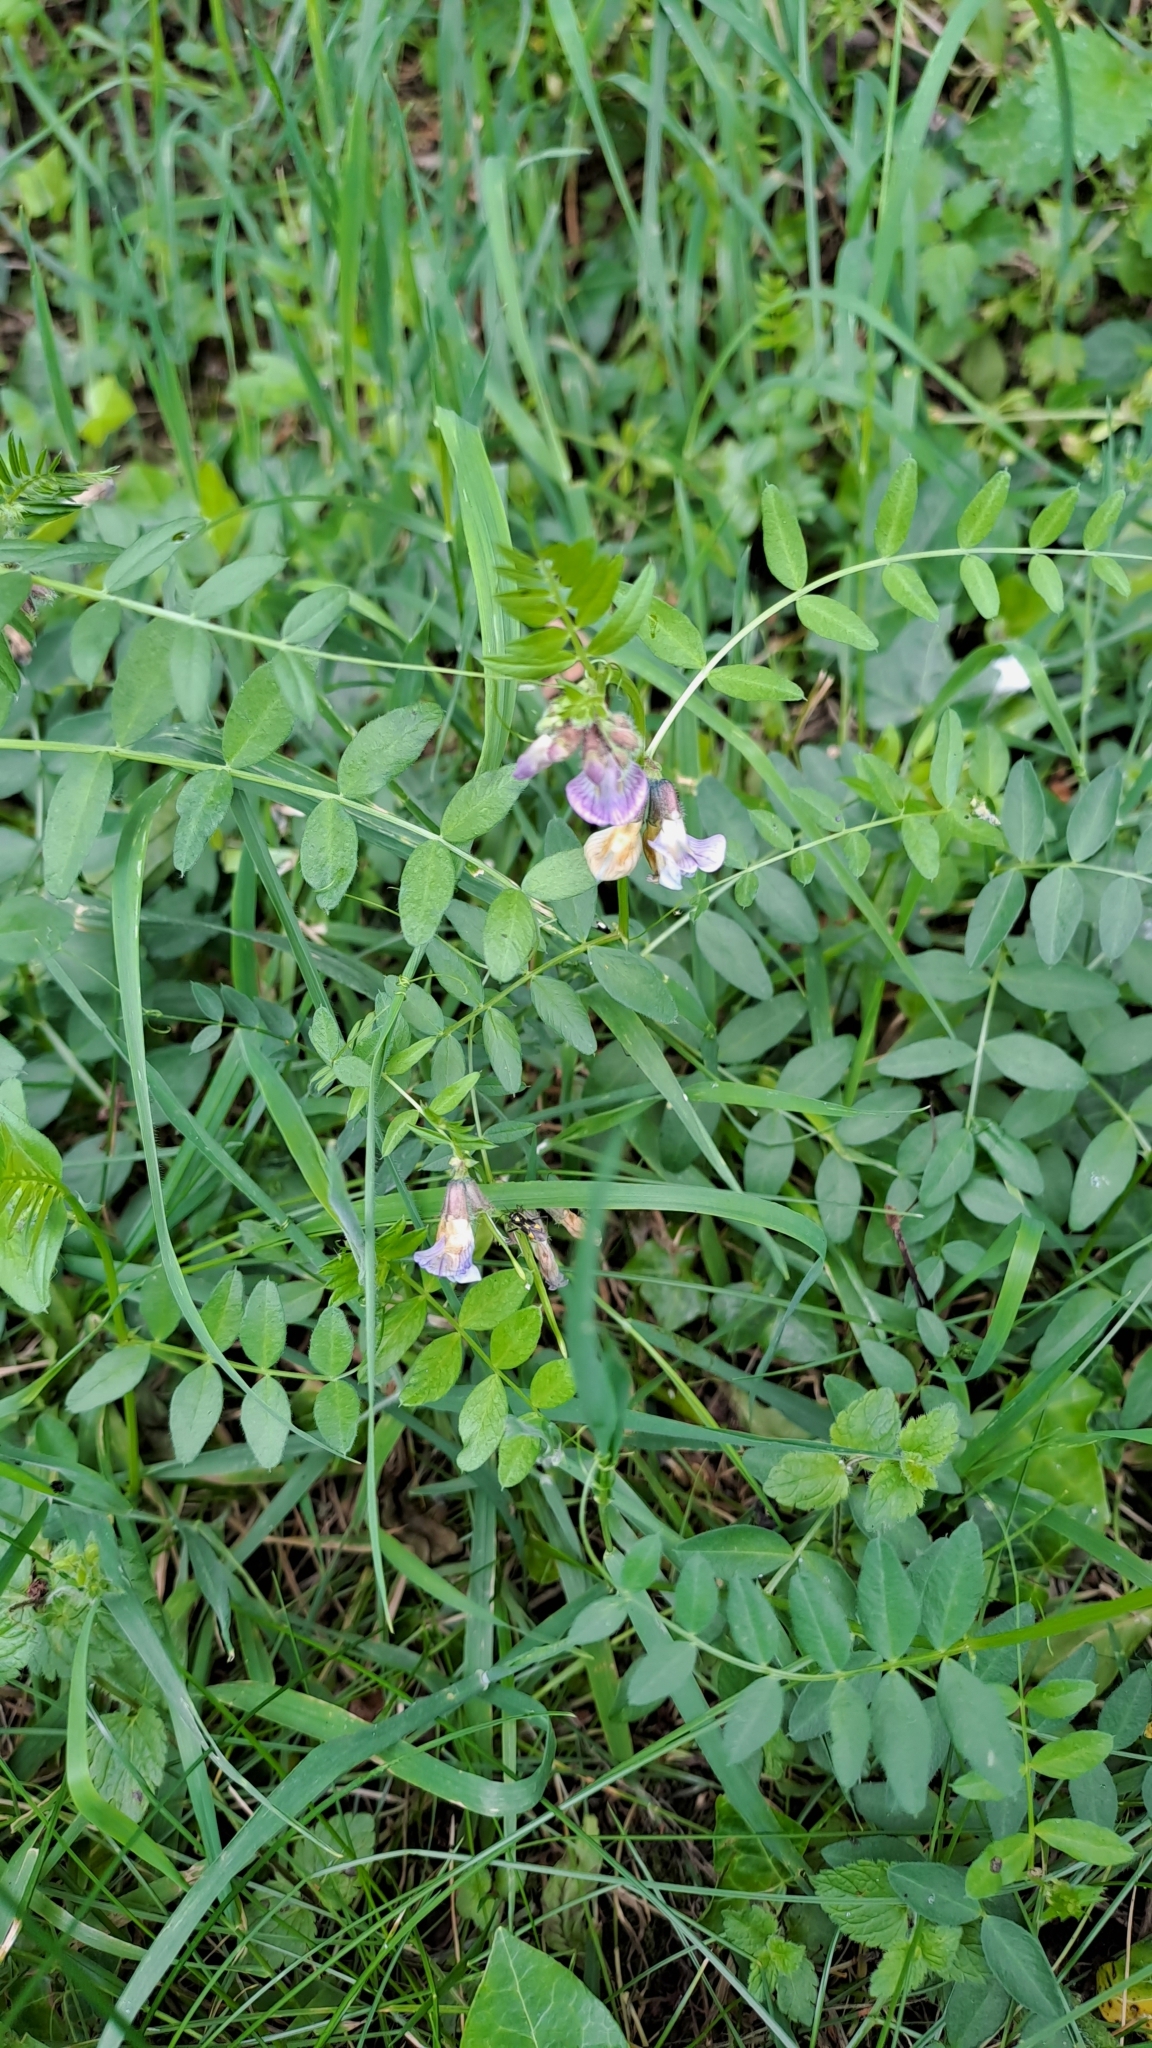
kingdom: Plantae
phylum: Tracheophyta
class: Magnoliopsida
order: Fabales
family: Fabaceae
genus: Vicia
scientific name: Vicia sepium
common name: Bush vetch
